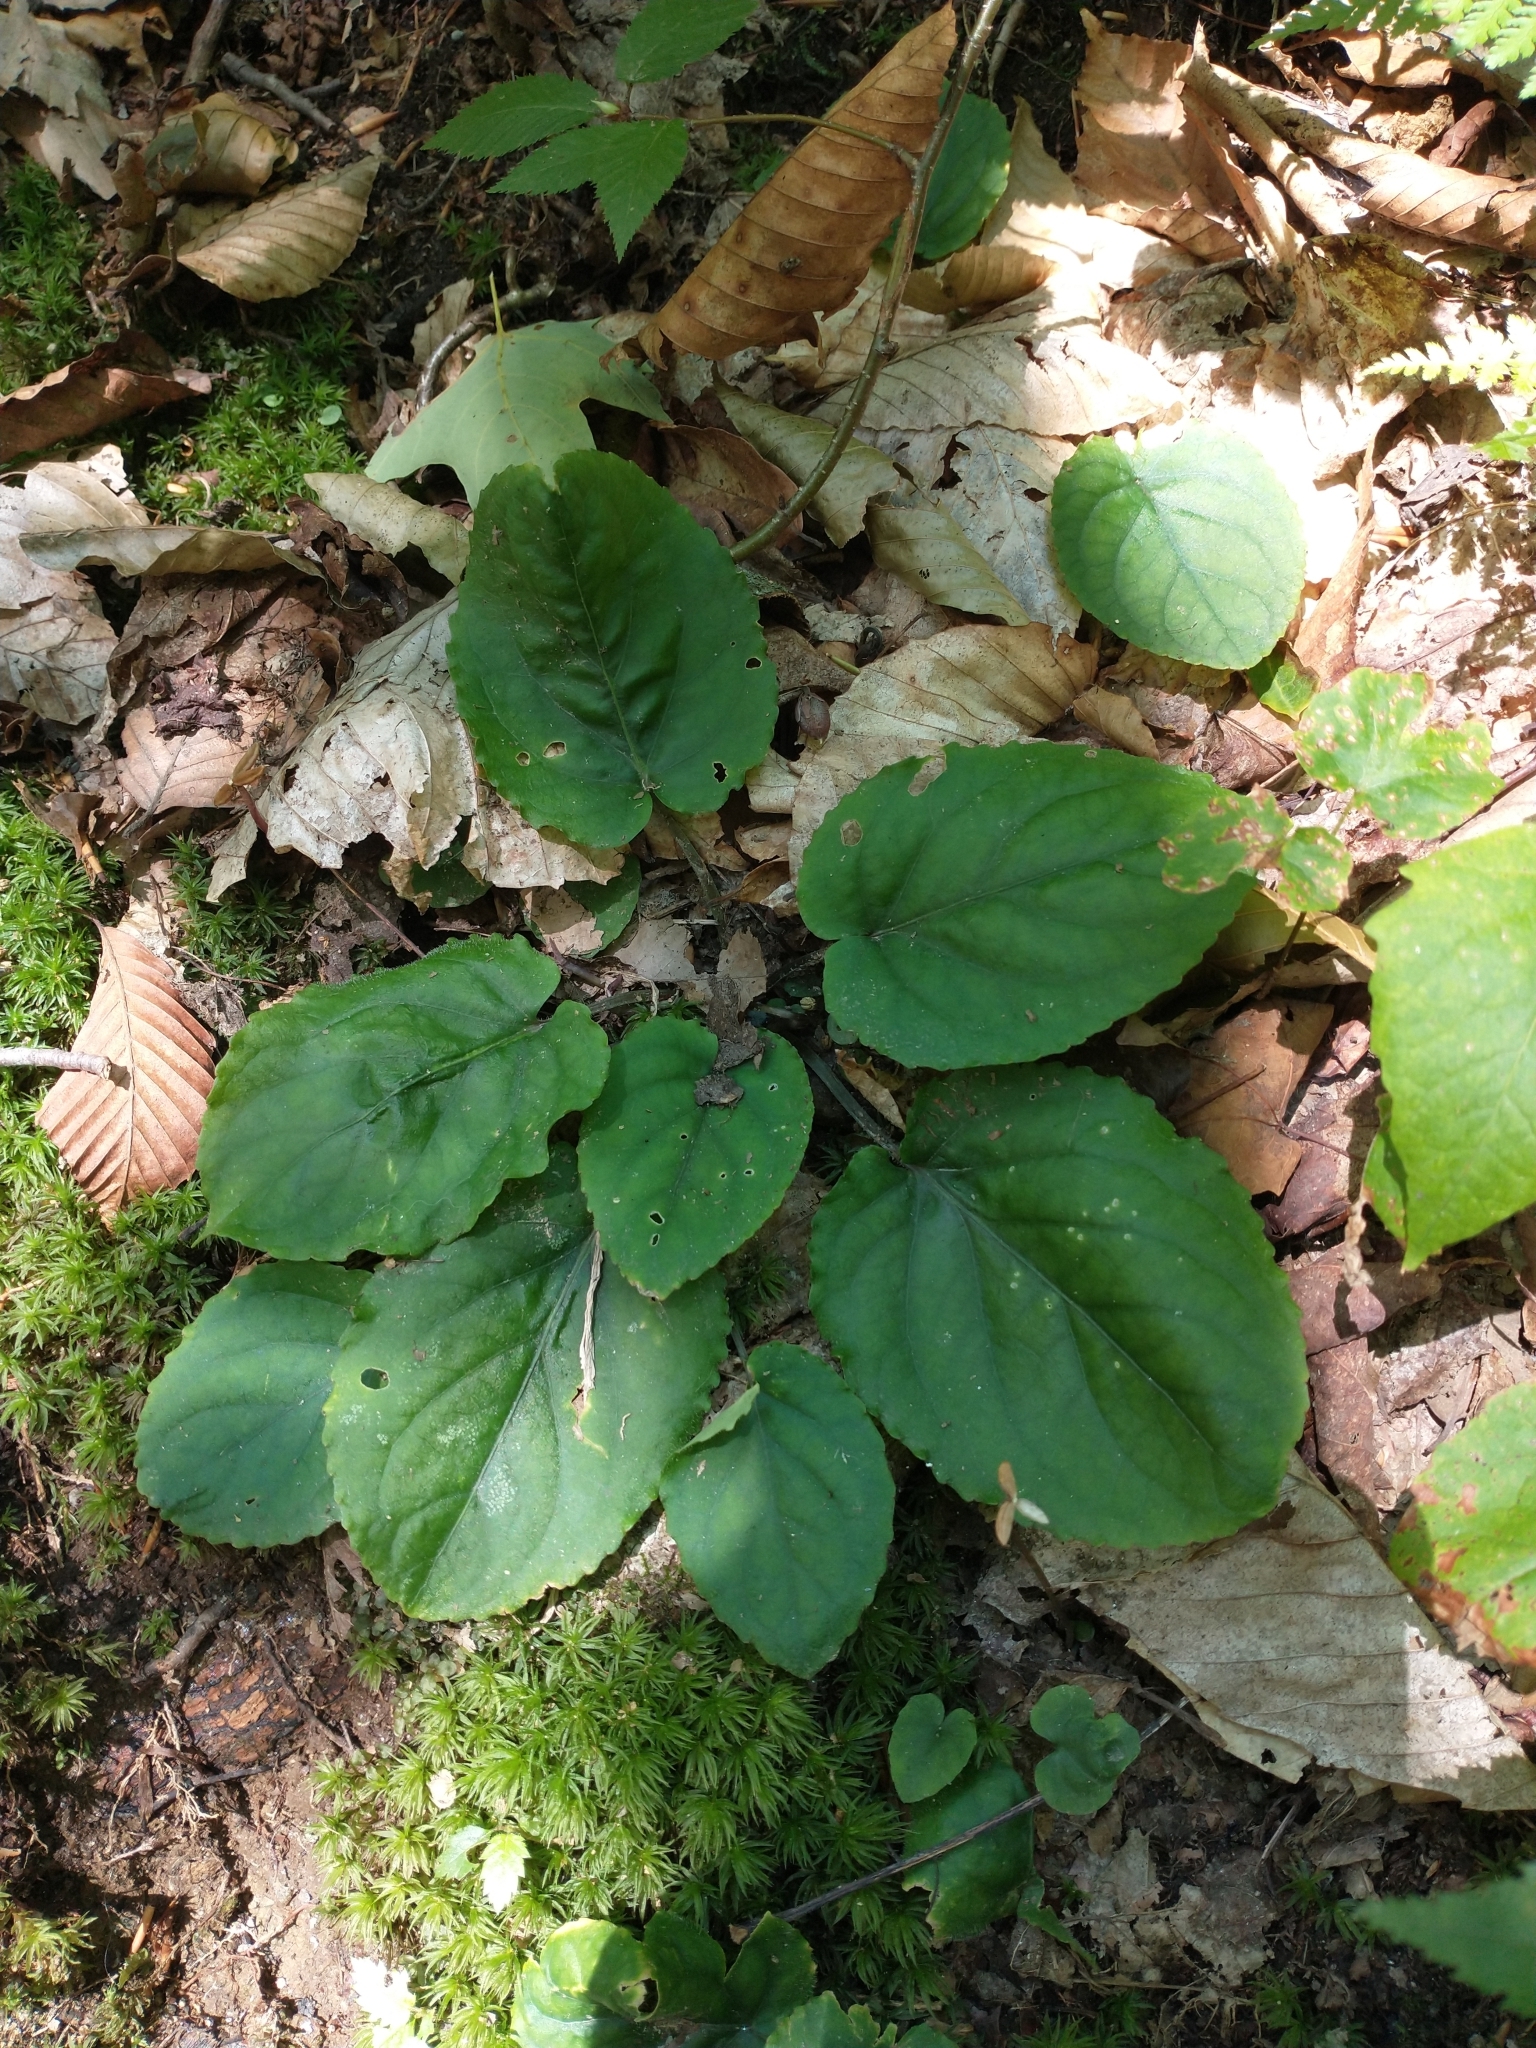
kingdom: Plantae
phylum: Tracheophyta
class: Magnoliopsida
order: Malpighiales
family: Violaceae
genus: Viola
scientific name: Viola rotundifolia
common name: Early yellow violet
